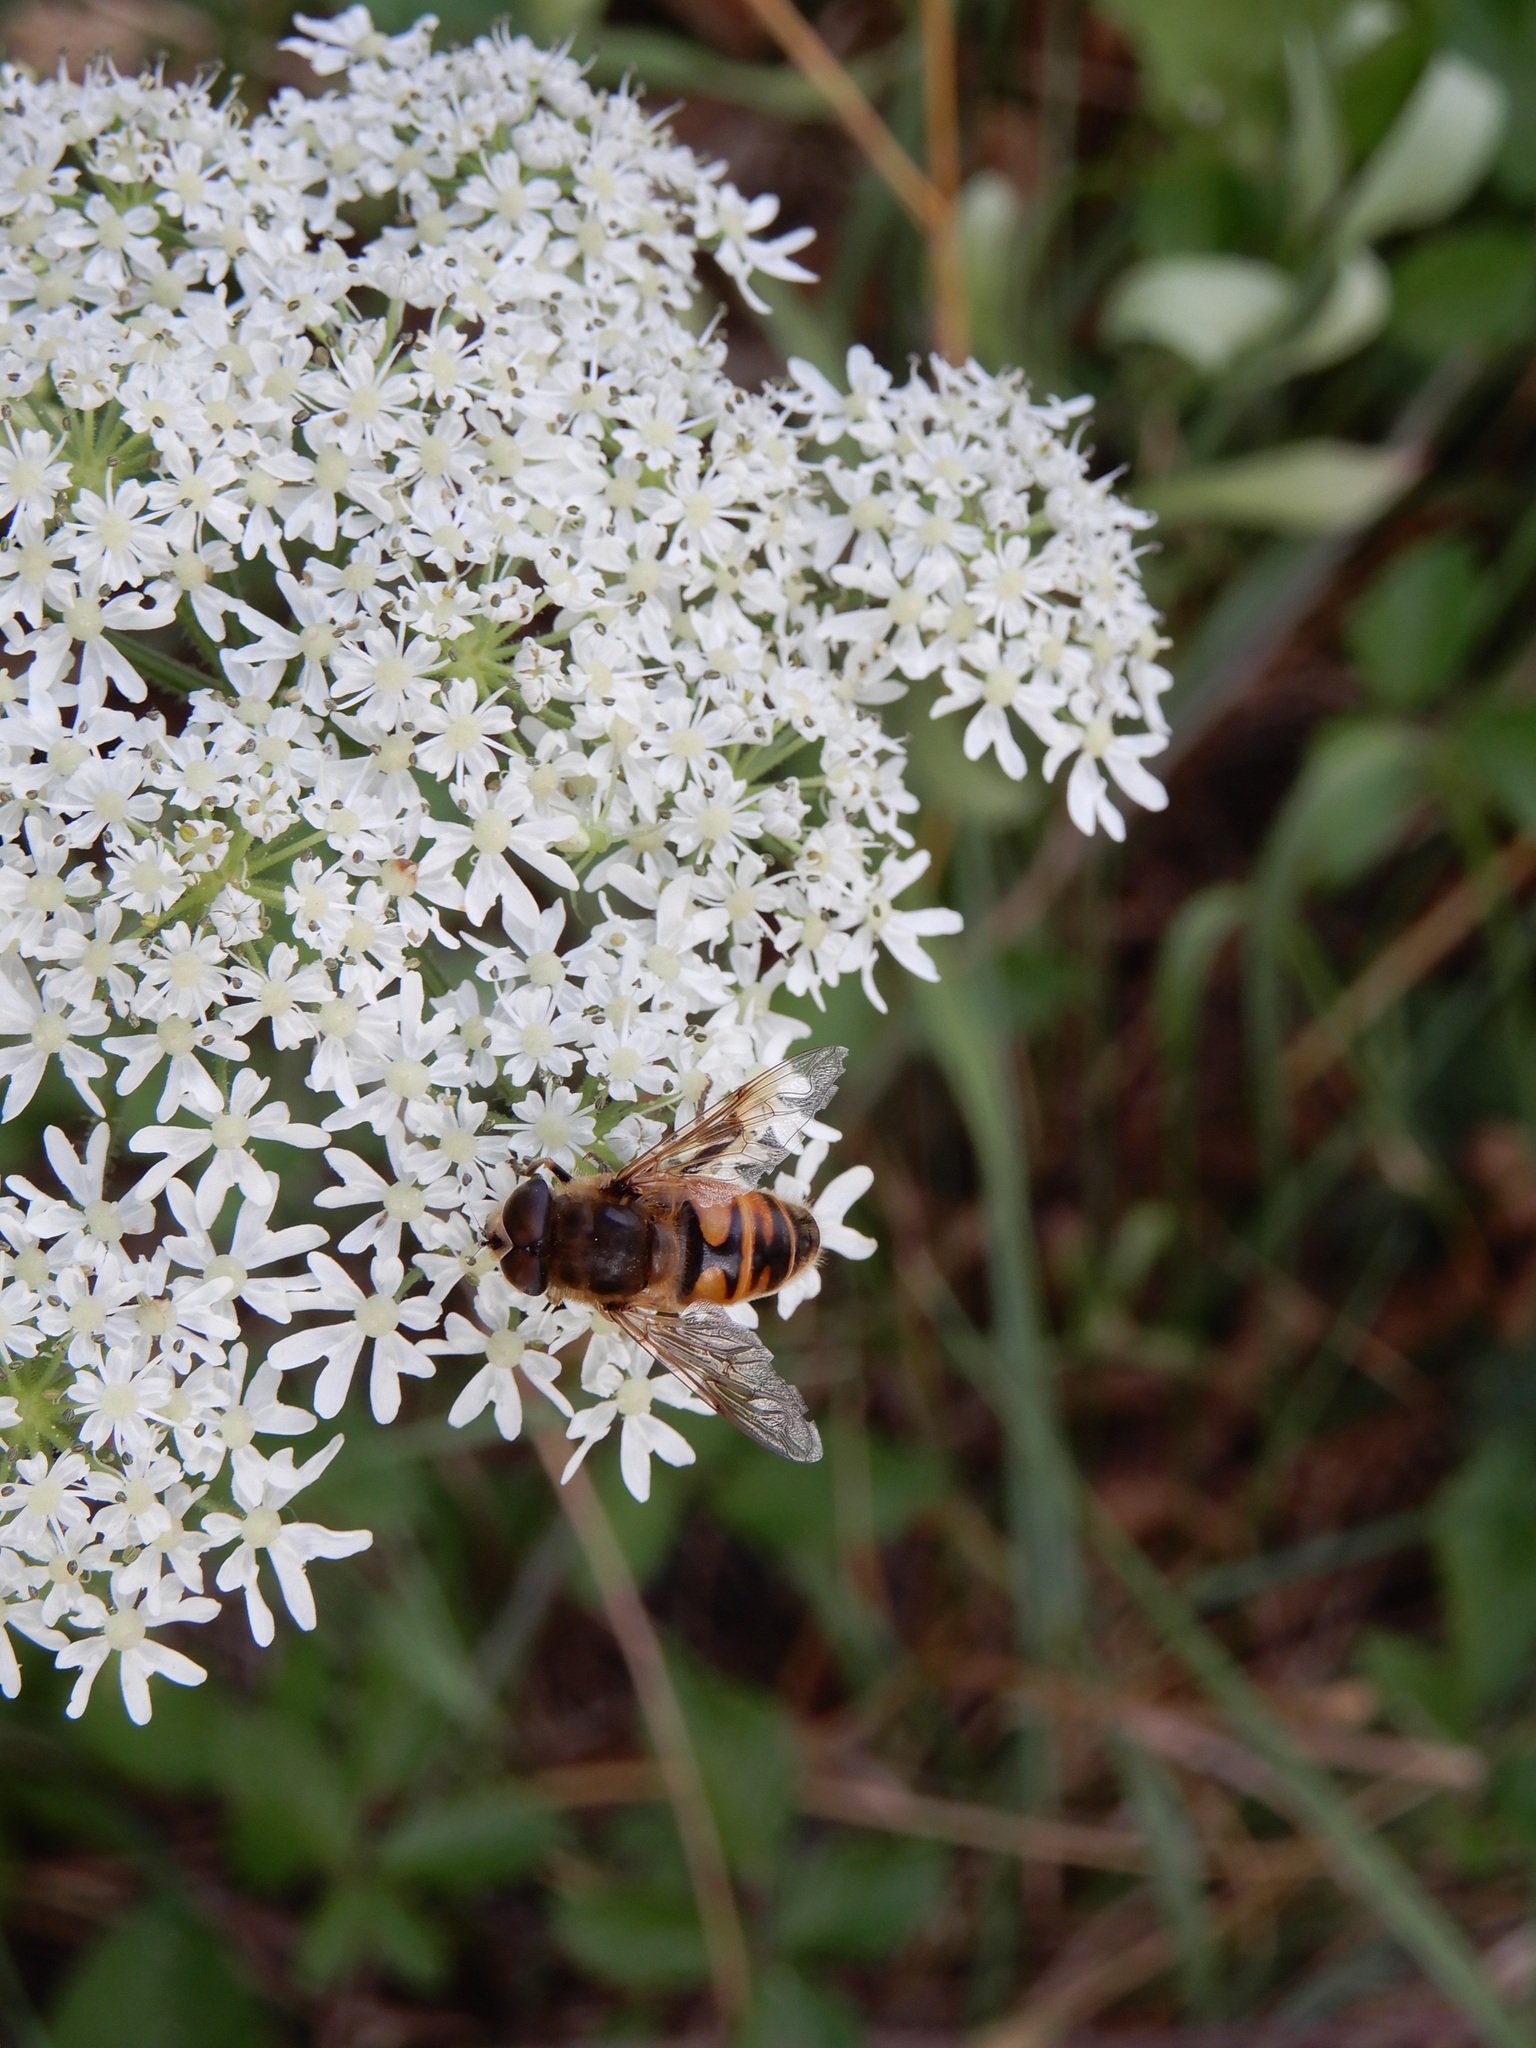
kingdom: Animalia
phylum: Arthropoda
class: Insecta
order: Diptera
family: Syrphidae
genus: Eristalis
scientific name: Eristalis tenax
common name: Drone fly
